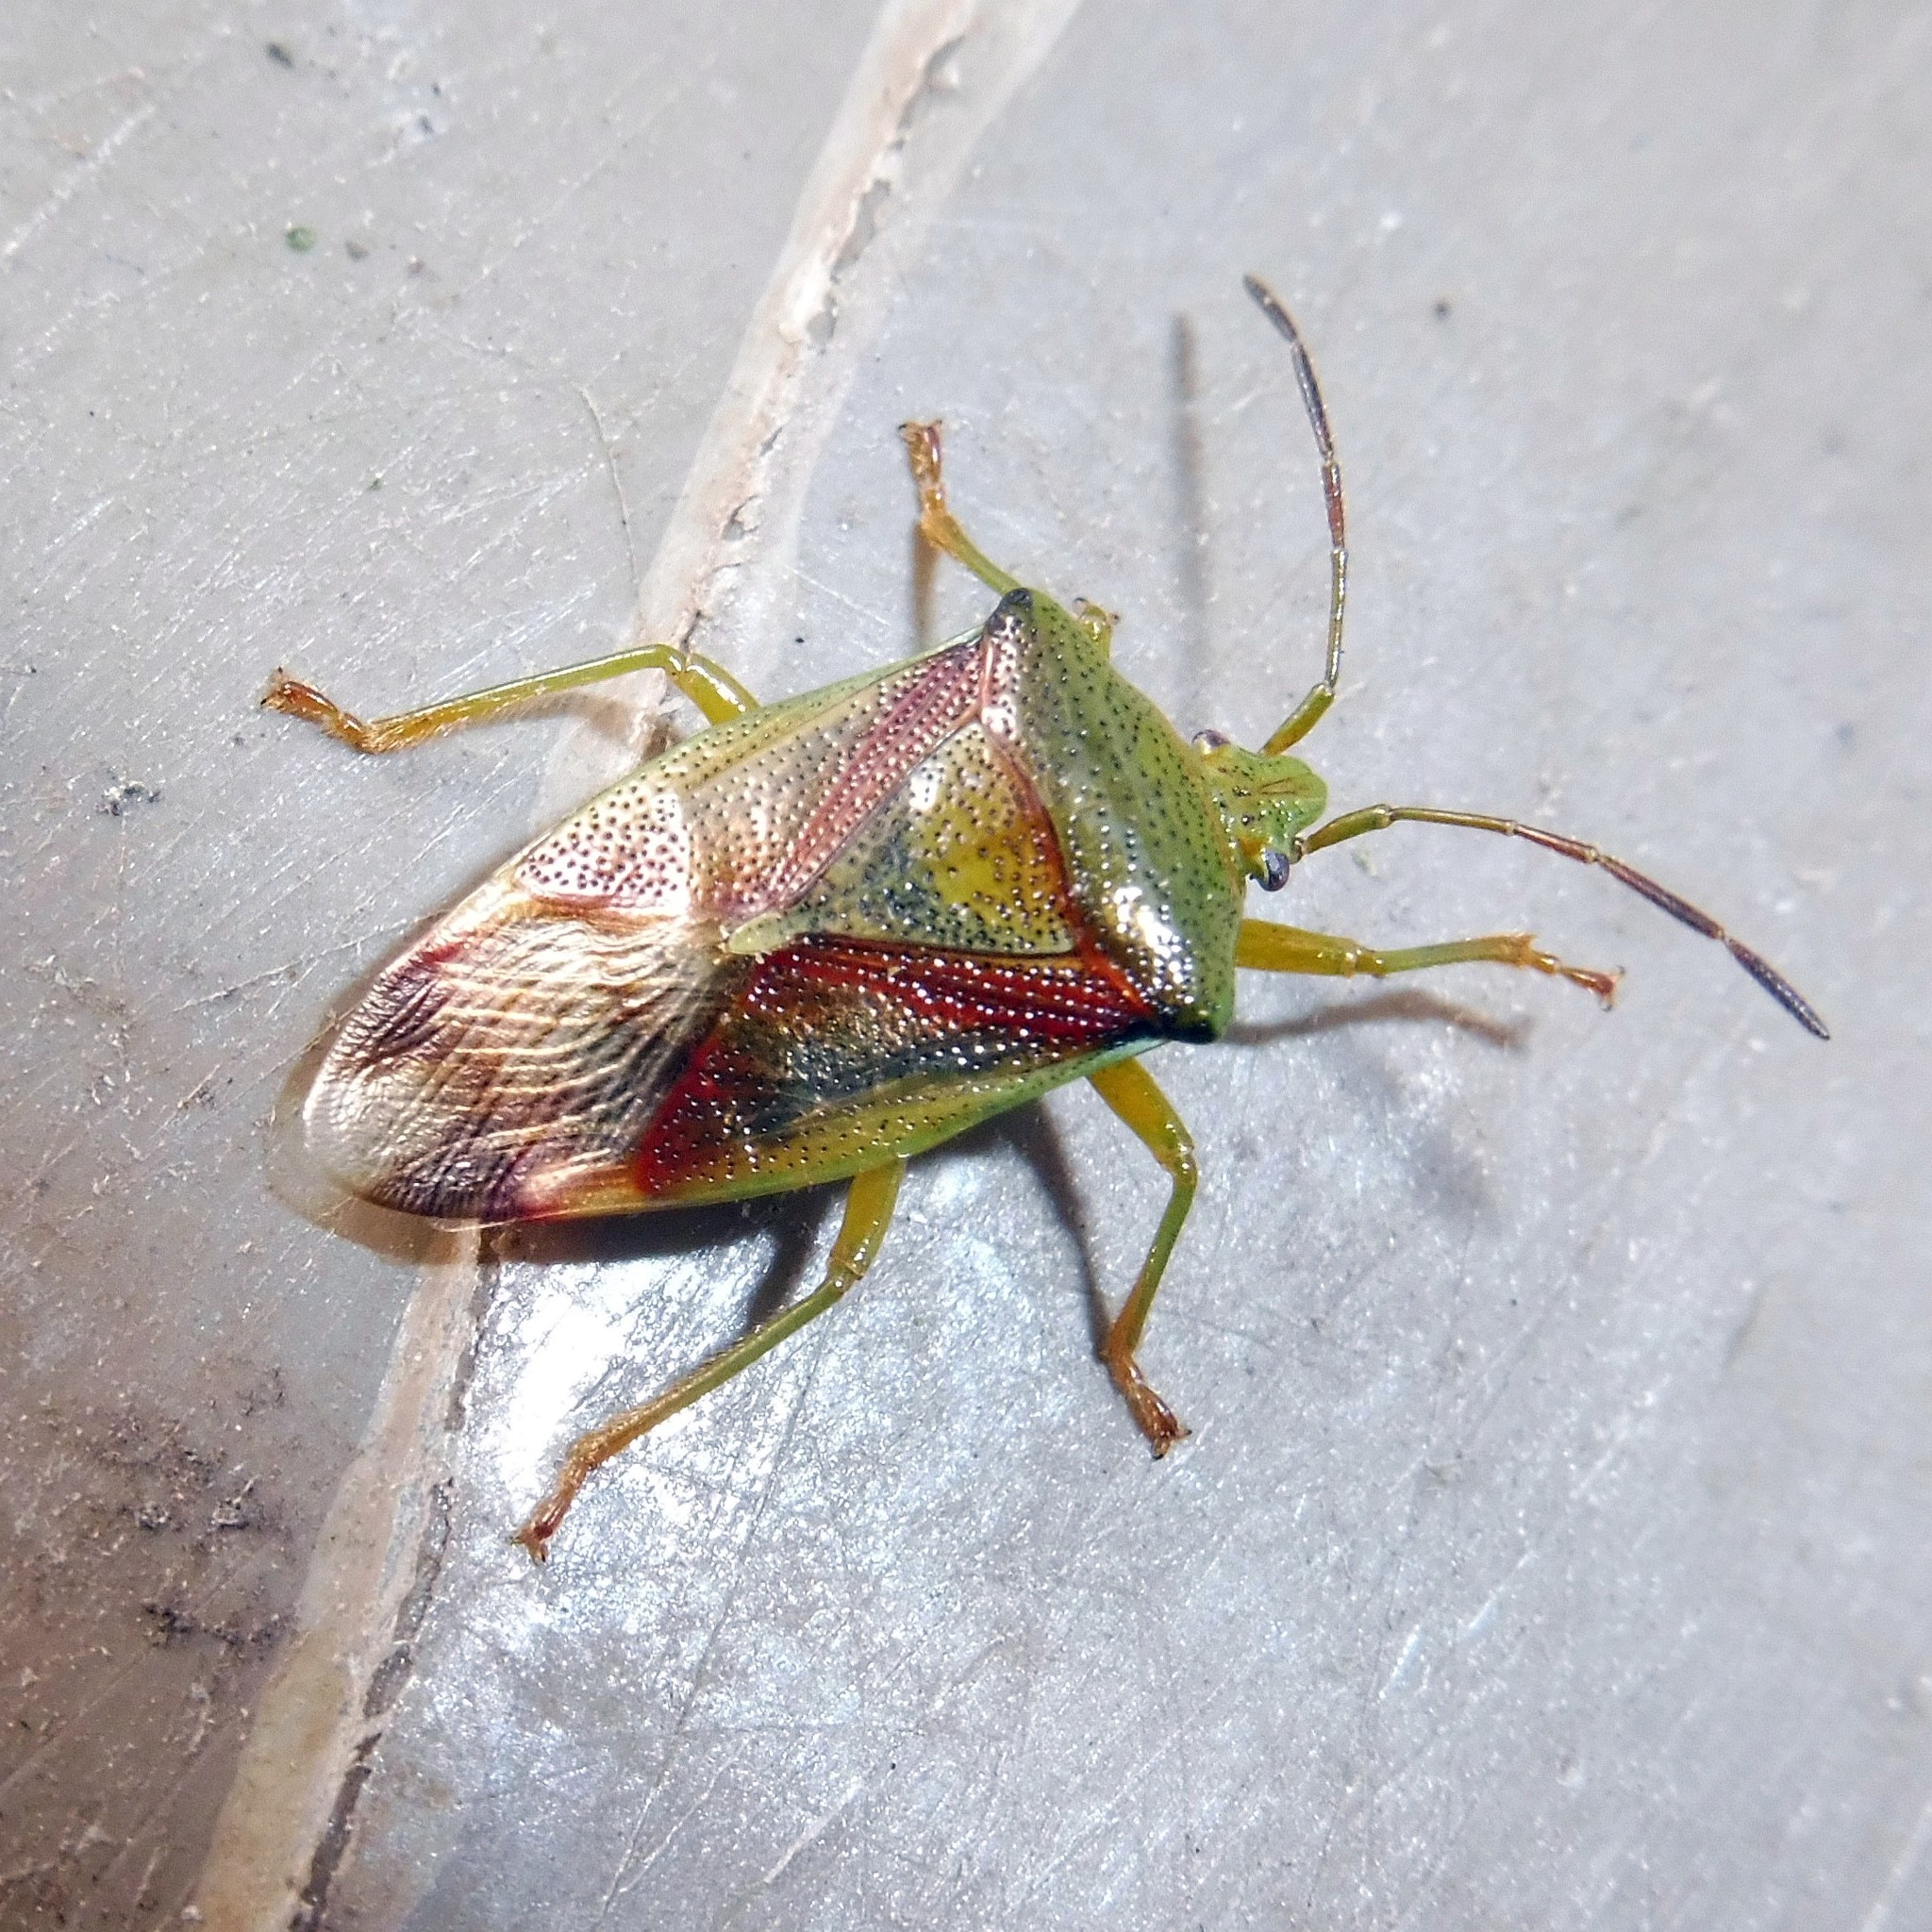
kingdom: Animalia
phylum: Arthropoda
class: Insecta
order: Hemiptera
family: Acanthosomatidae
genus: Elasmostethus
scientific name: Elasmostethus interstinctus
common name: Birch shieldbug
